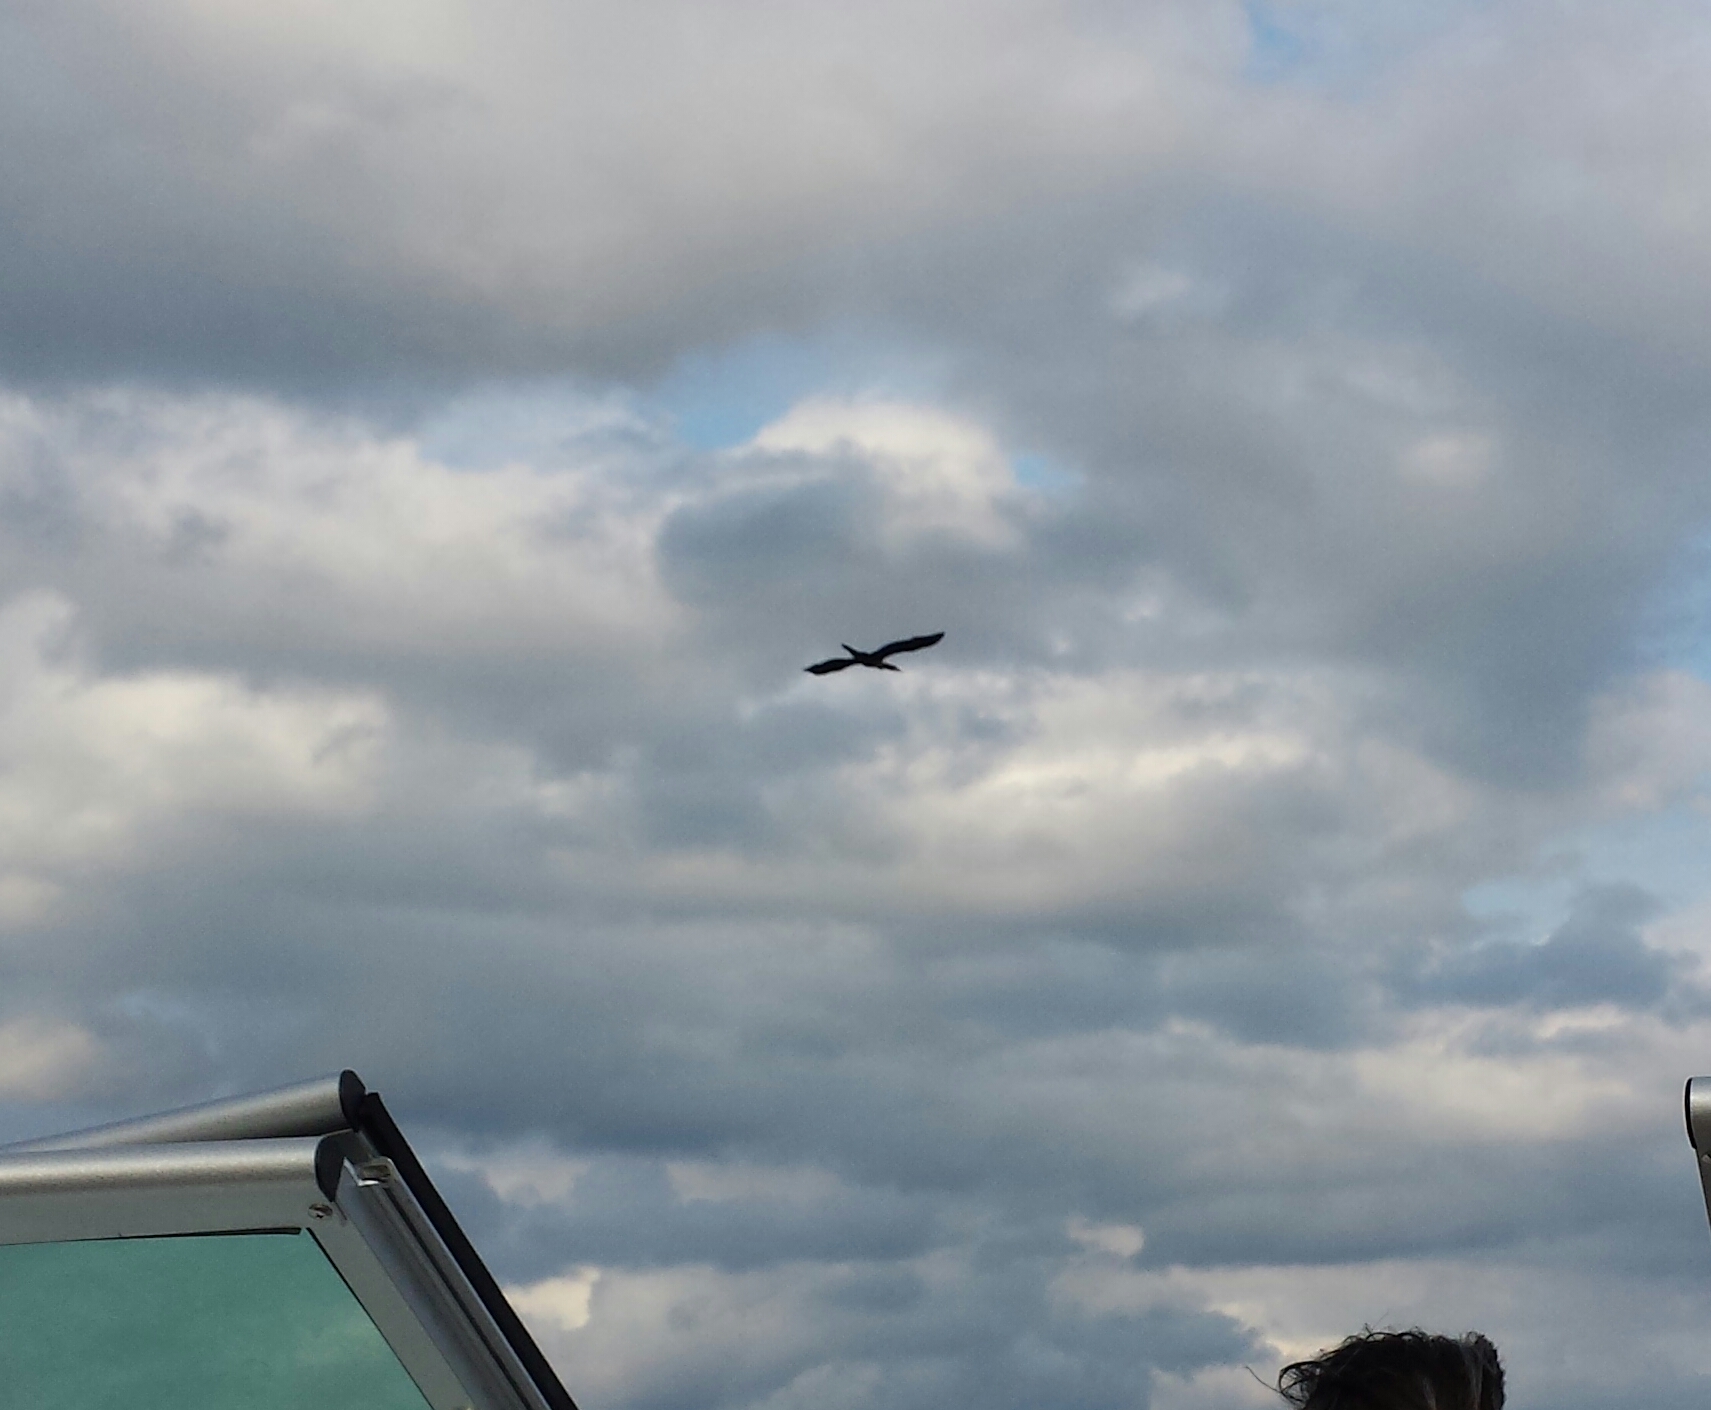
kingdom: Animalia
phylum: Chordata
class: Aves
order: Suliformes
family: Phalacrocoracidae
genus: Phalacrocorax
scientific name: Phalacrocorax auritus
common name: Double-crested cormorant
